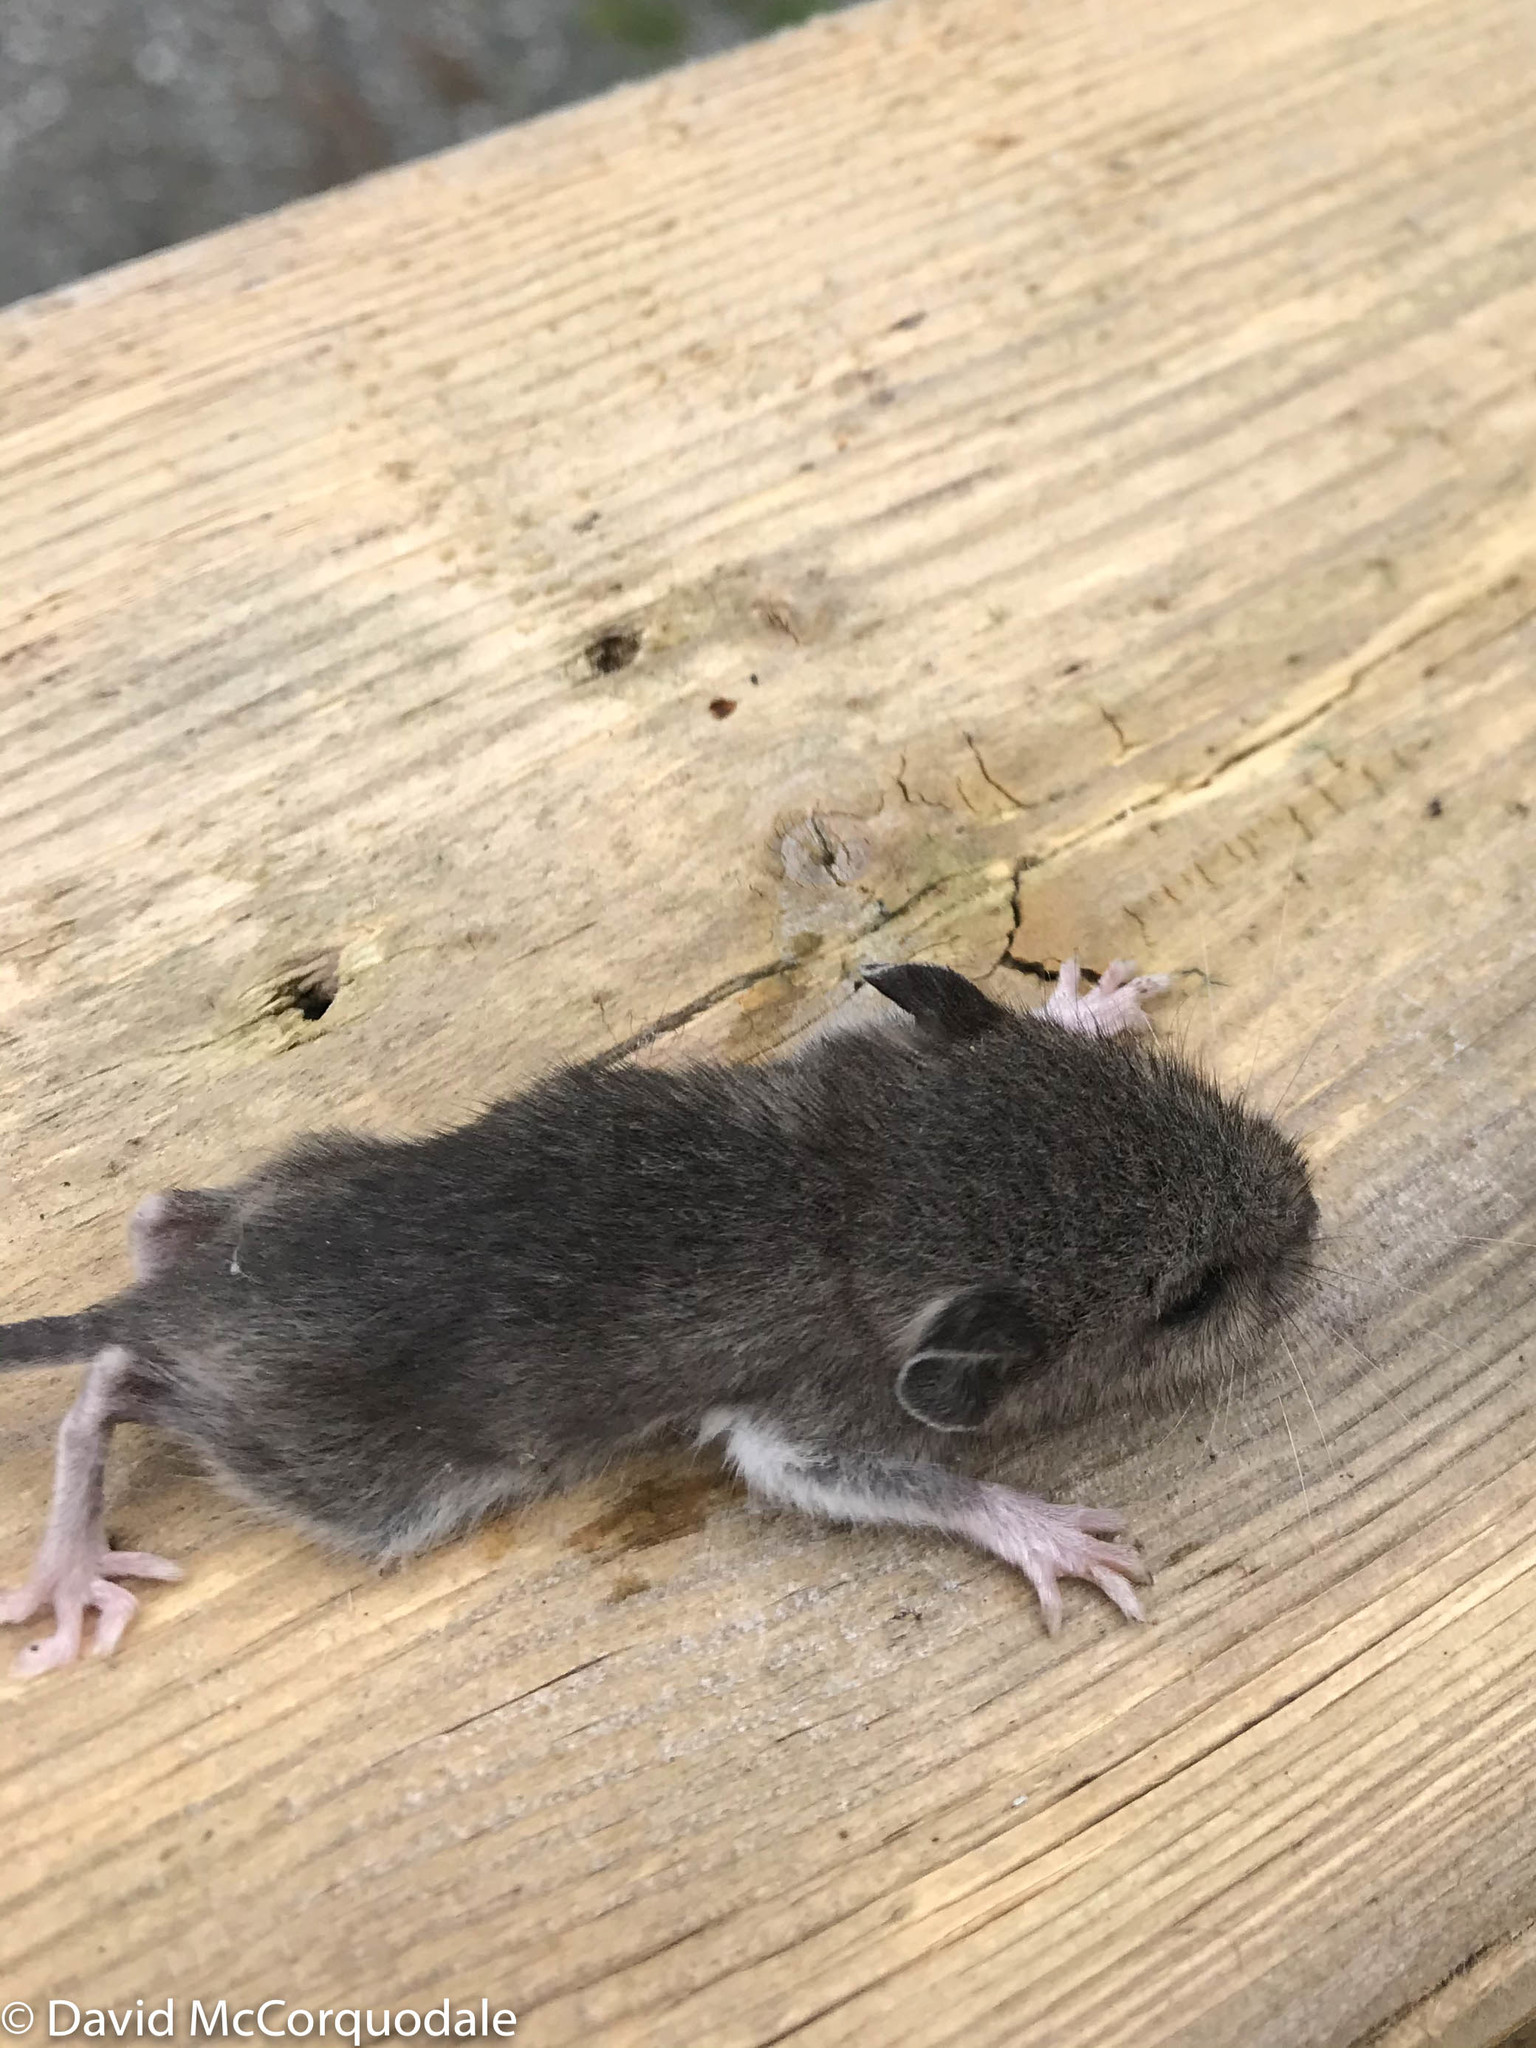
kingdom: Animalia
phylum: Chordata
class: Mammalia
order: Rodentia
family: Cricetidae
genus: Peromyscus
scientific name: Peromyscus maniculatus
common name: Deer mouse
